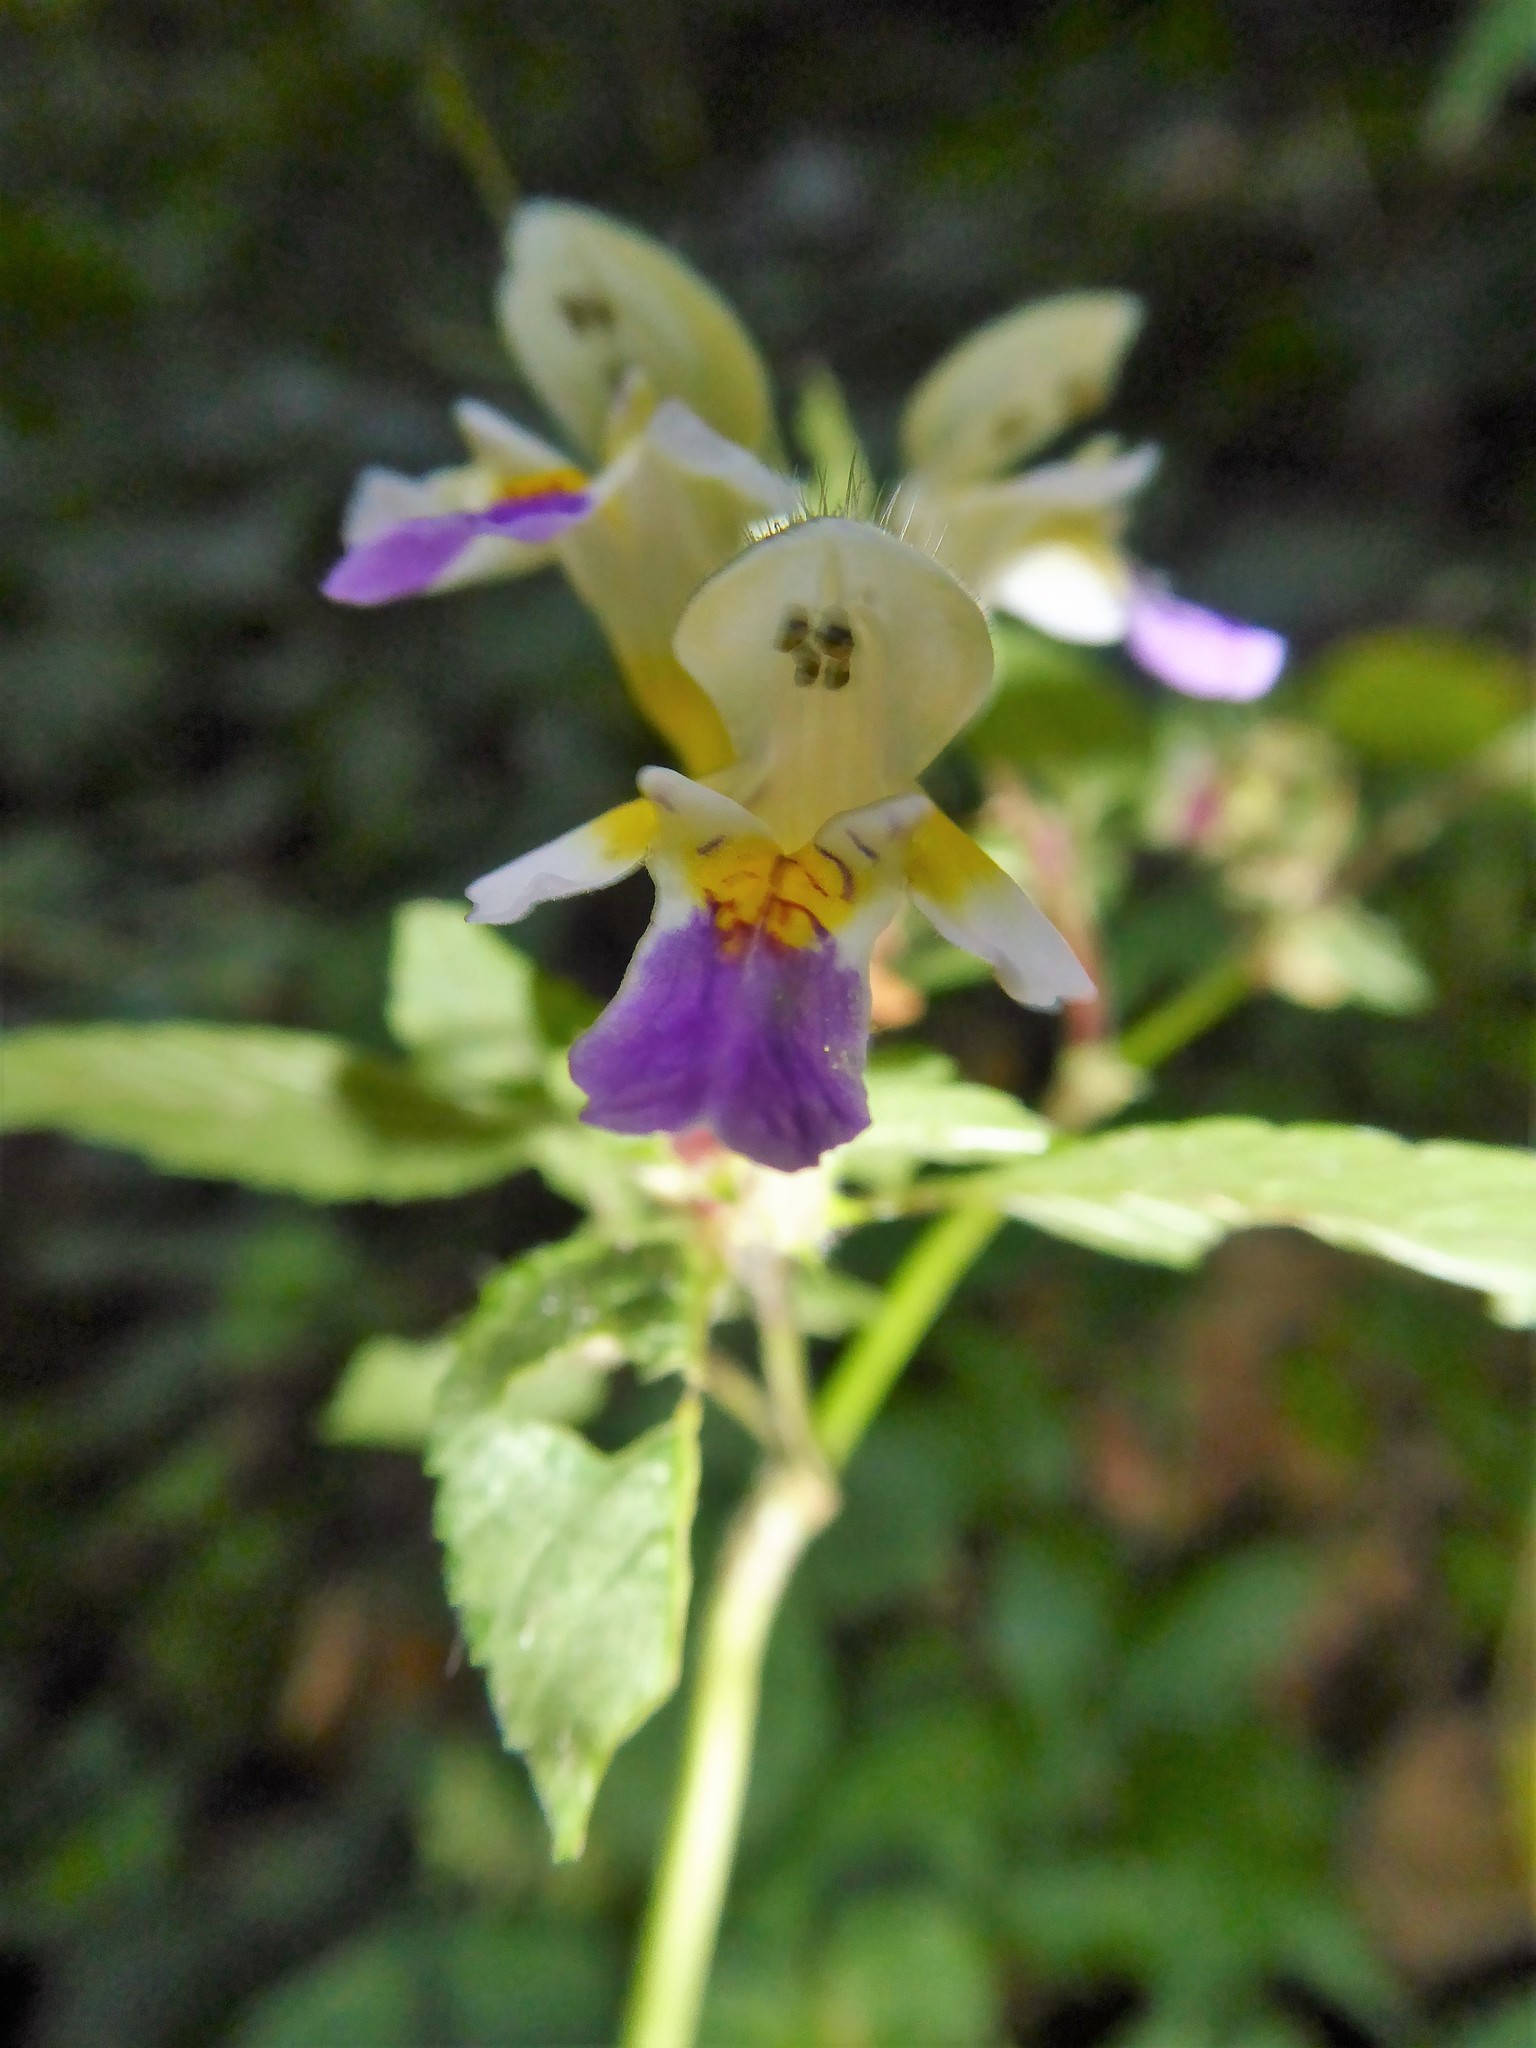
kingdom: Plantae
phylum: Tracheophyta
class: Magnoliopsida
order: Lamiales
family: Lamiaceae
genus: Galeopsis
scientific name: Galeopsis speciosa
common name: Large-flowered hemp-nettle
